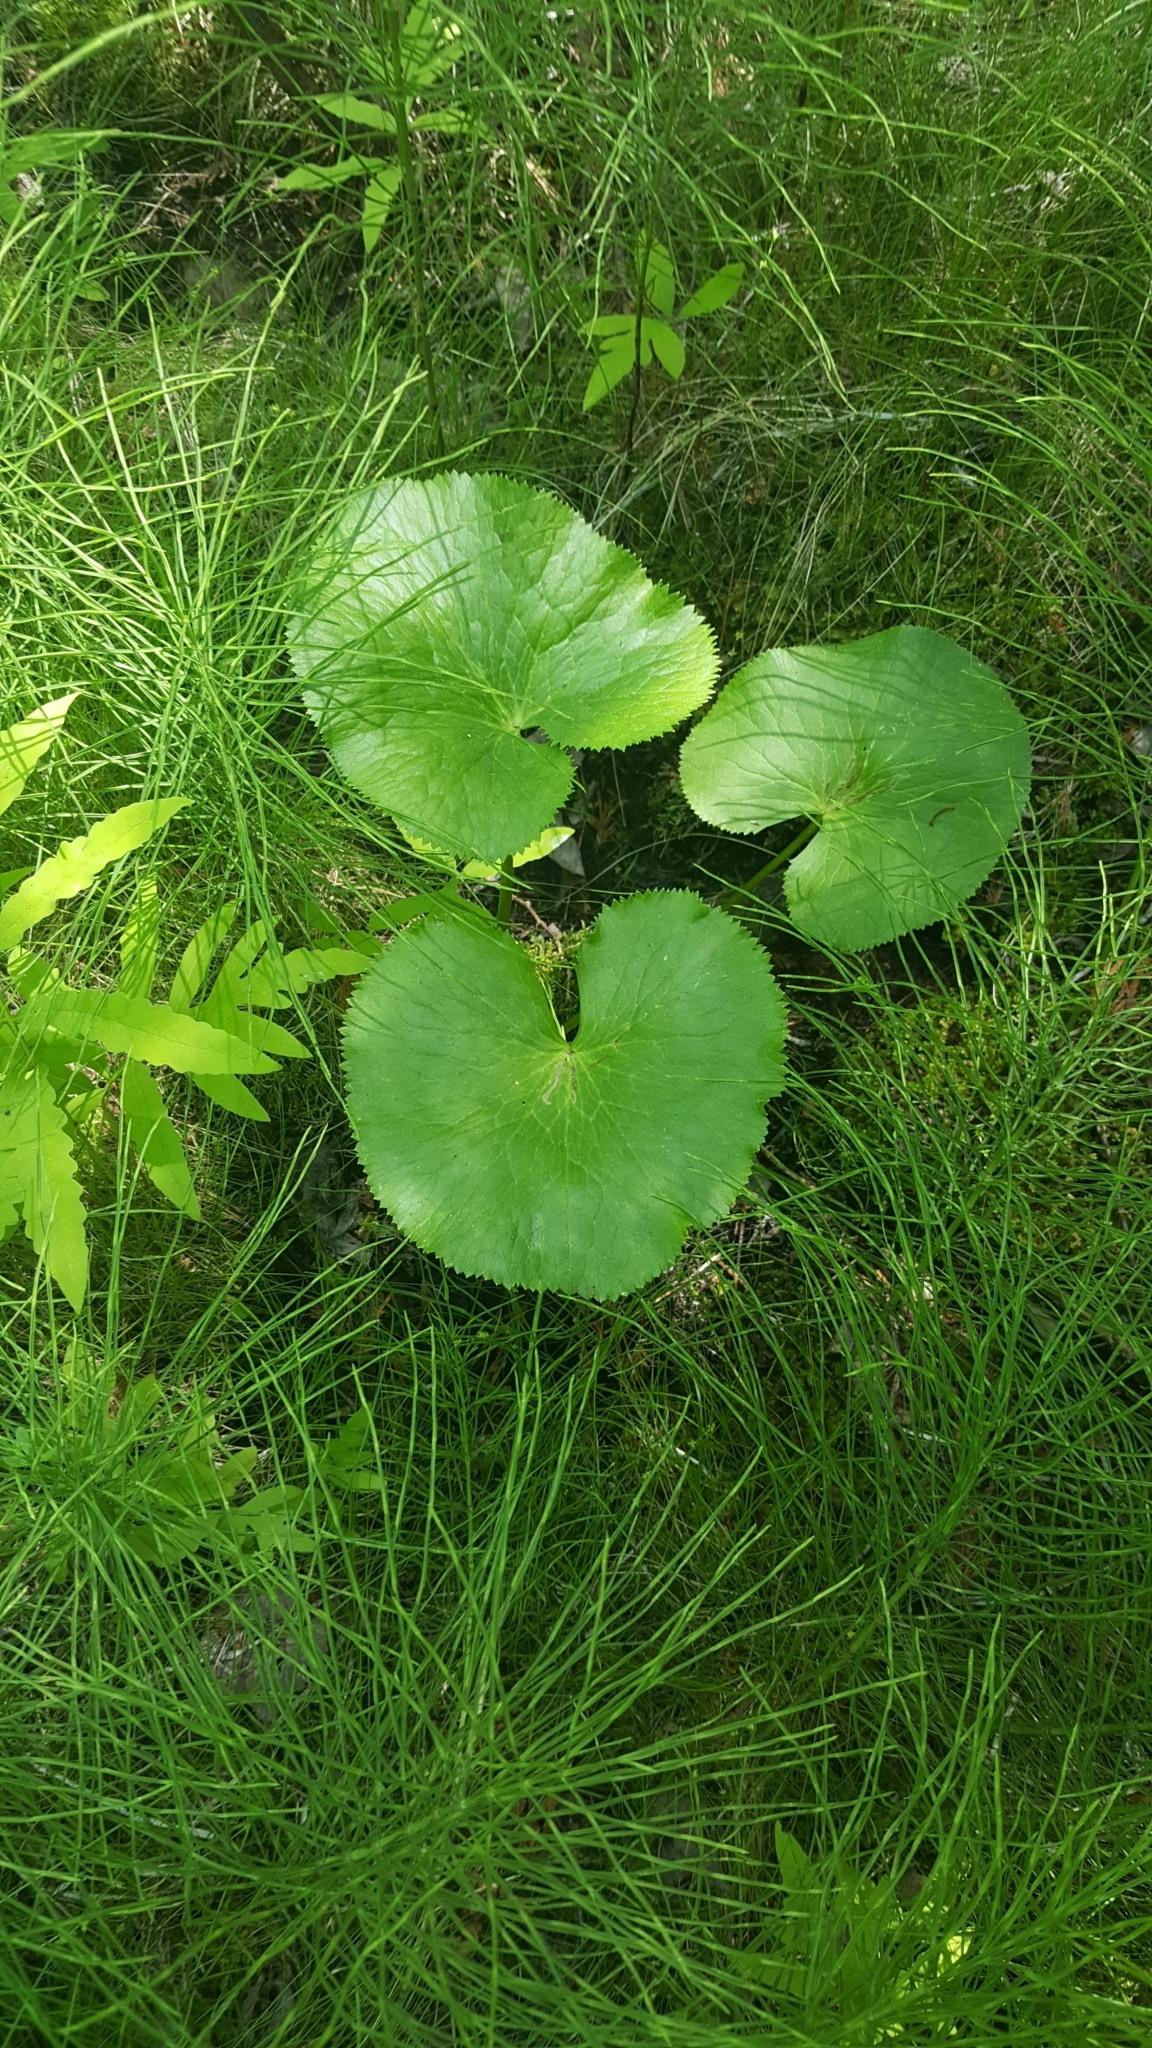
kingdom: Plantae
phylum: Tracheophyta
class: Magnoliopsida
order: Ranunculales
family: Ranunculaceae
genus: Caltha
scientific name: Caltha palustris
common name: Marsh marigold
